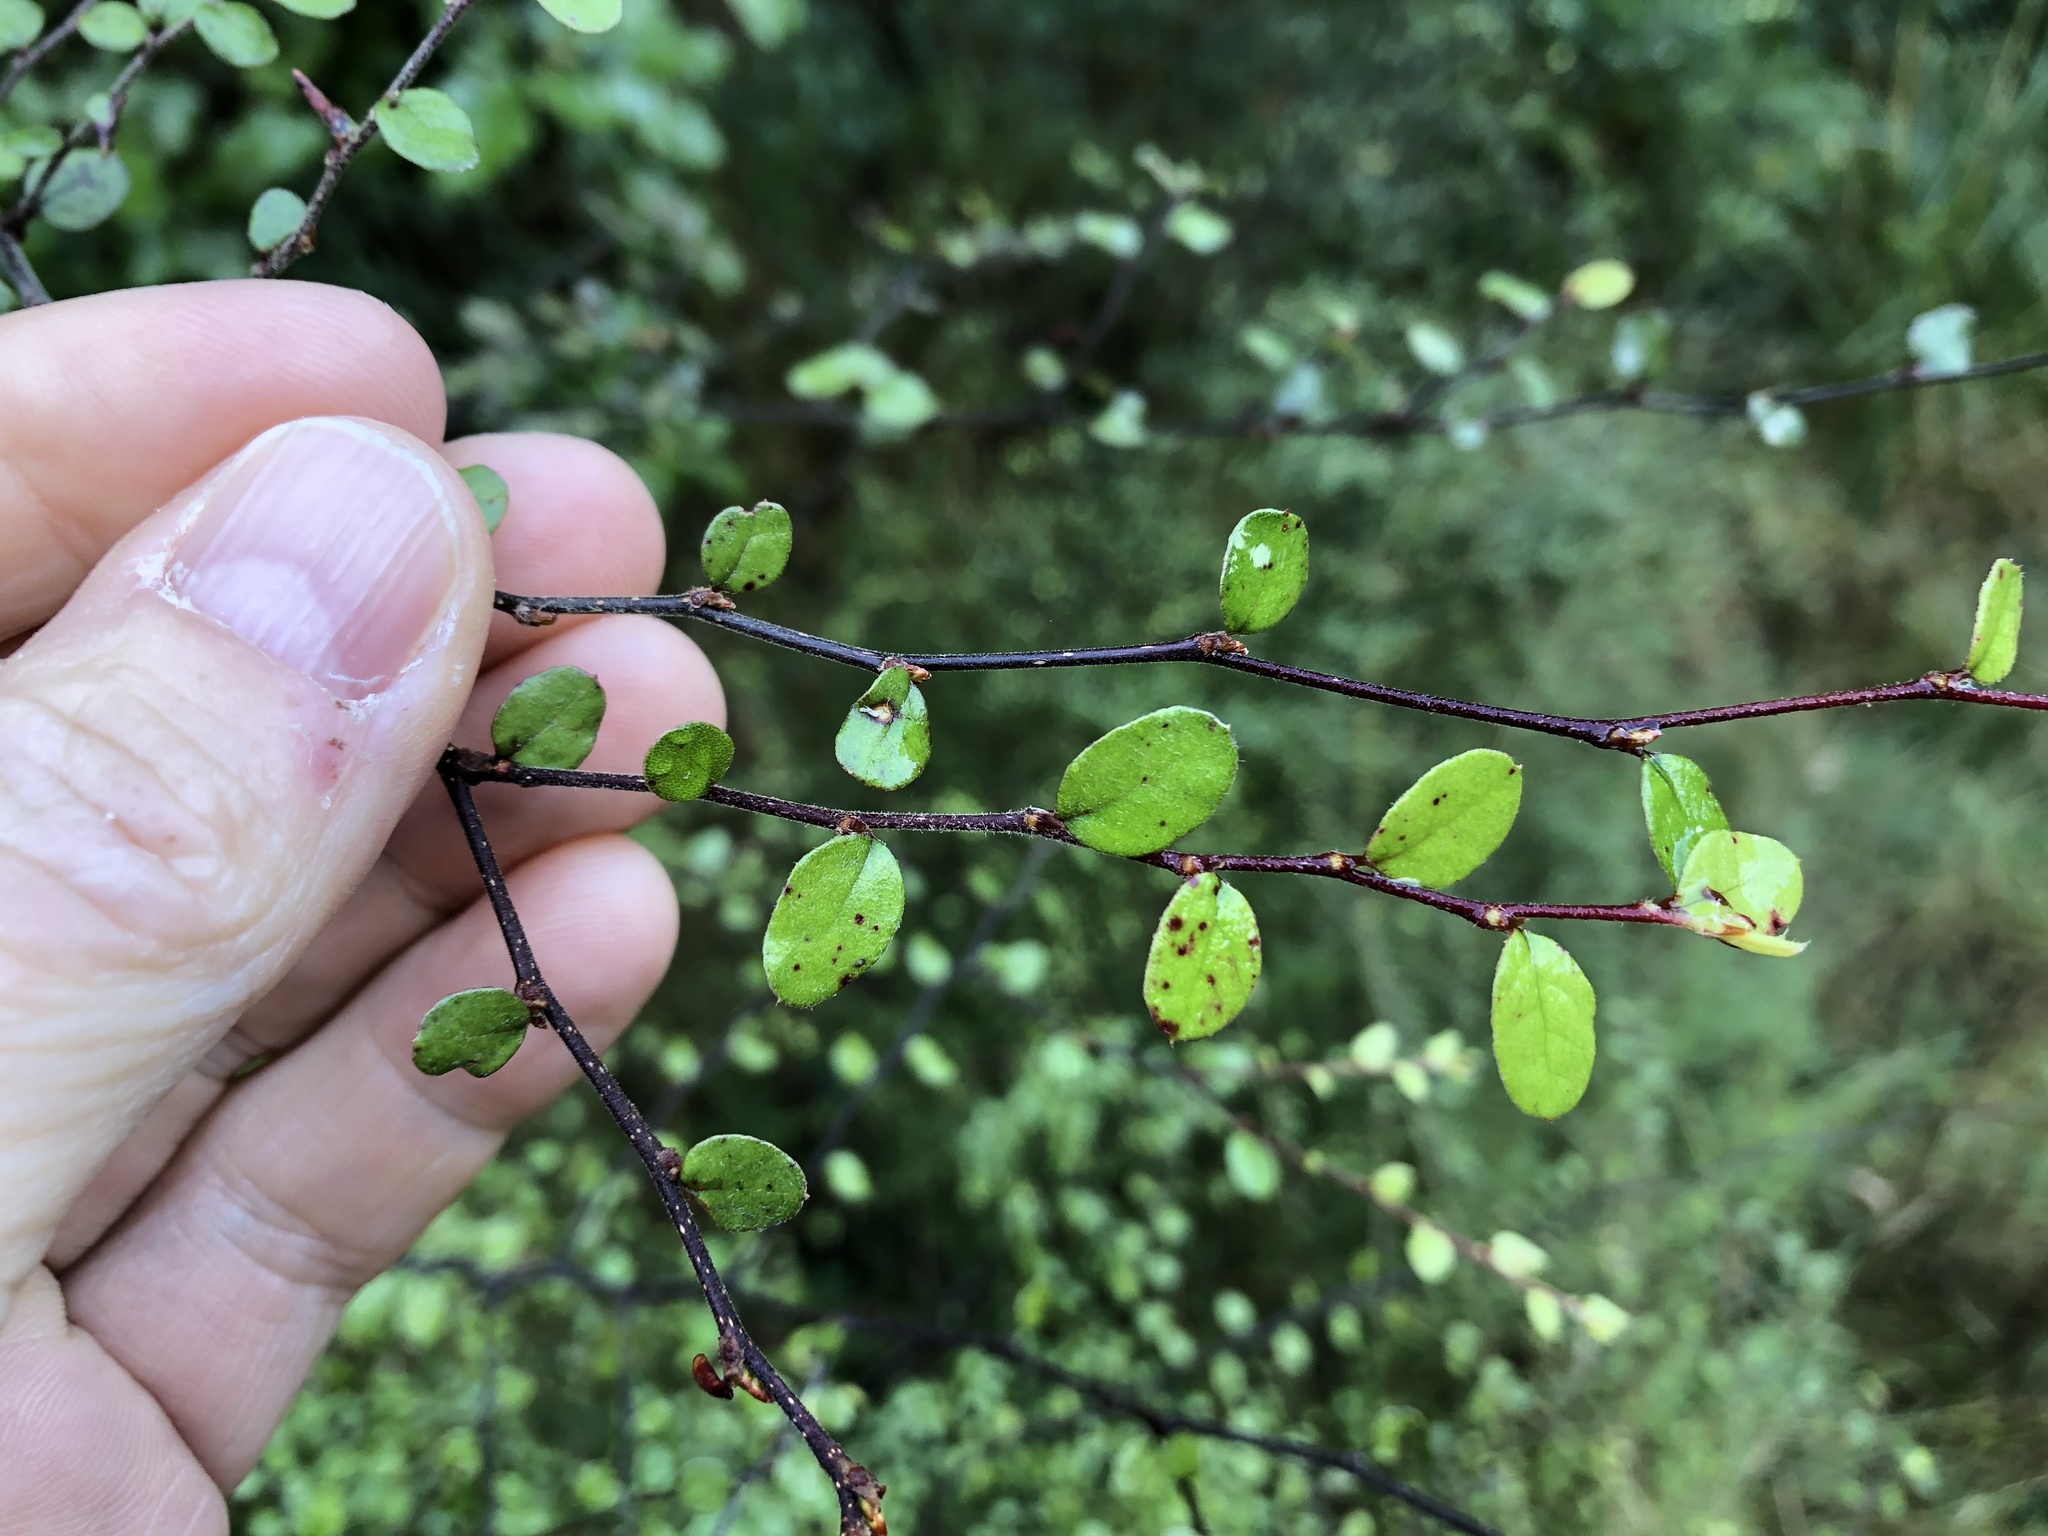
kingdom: Plantae
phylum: Tracheophyta
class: Magnoliopsida
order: Fagales
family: Nothofagaceae
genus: Nothofagus
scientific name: Nothofagus solandri
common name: Black beech
